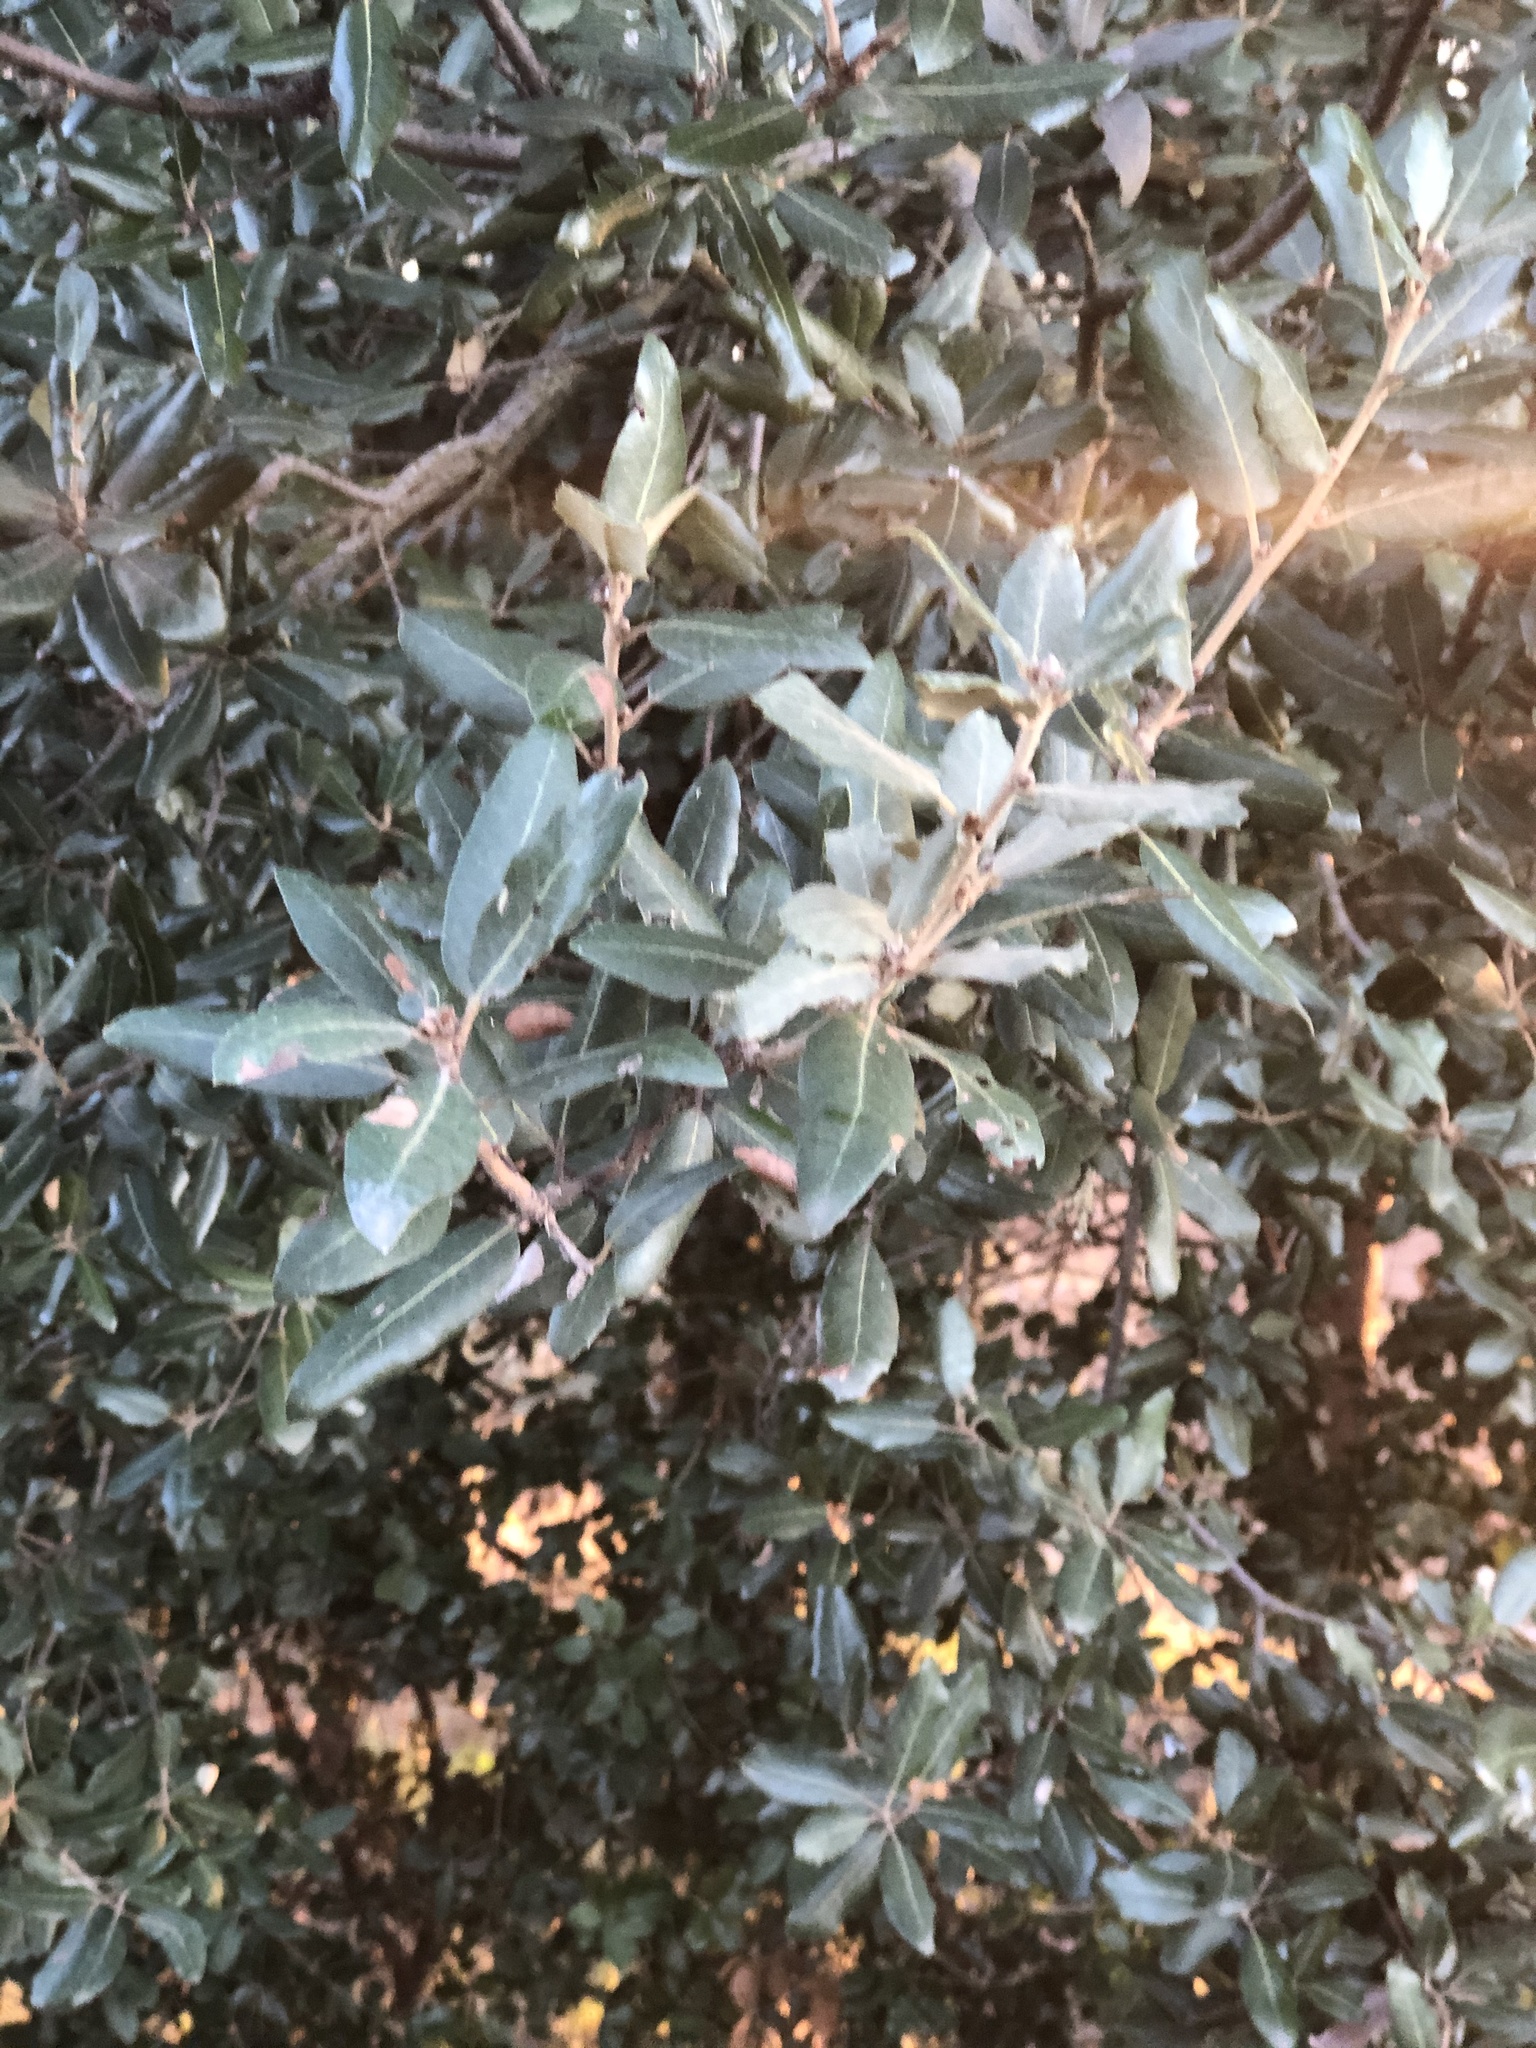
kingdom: Plantae
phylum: Tracheophyta
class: Magnoliopsida
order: Fagales
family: Fagaceae
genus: Quercus
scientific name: Quercus ilex
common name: Evergreen oak
